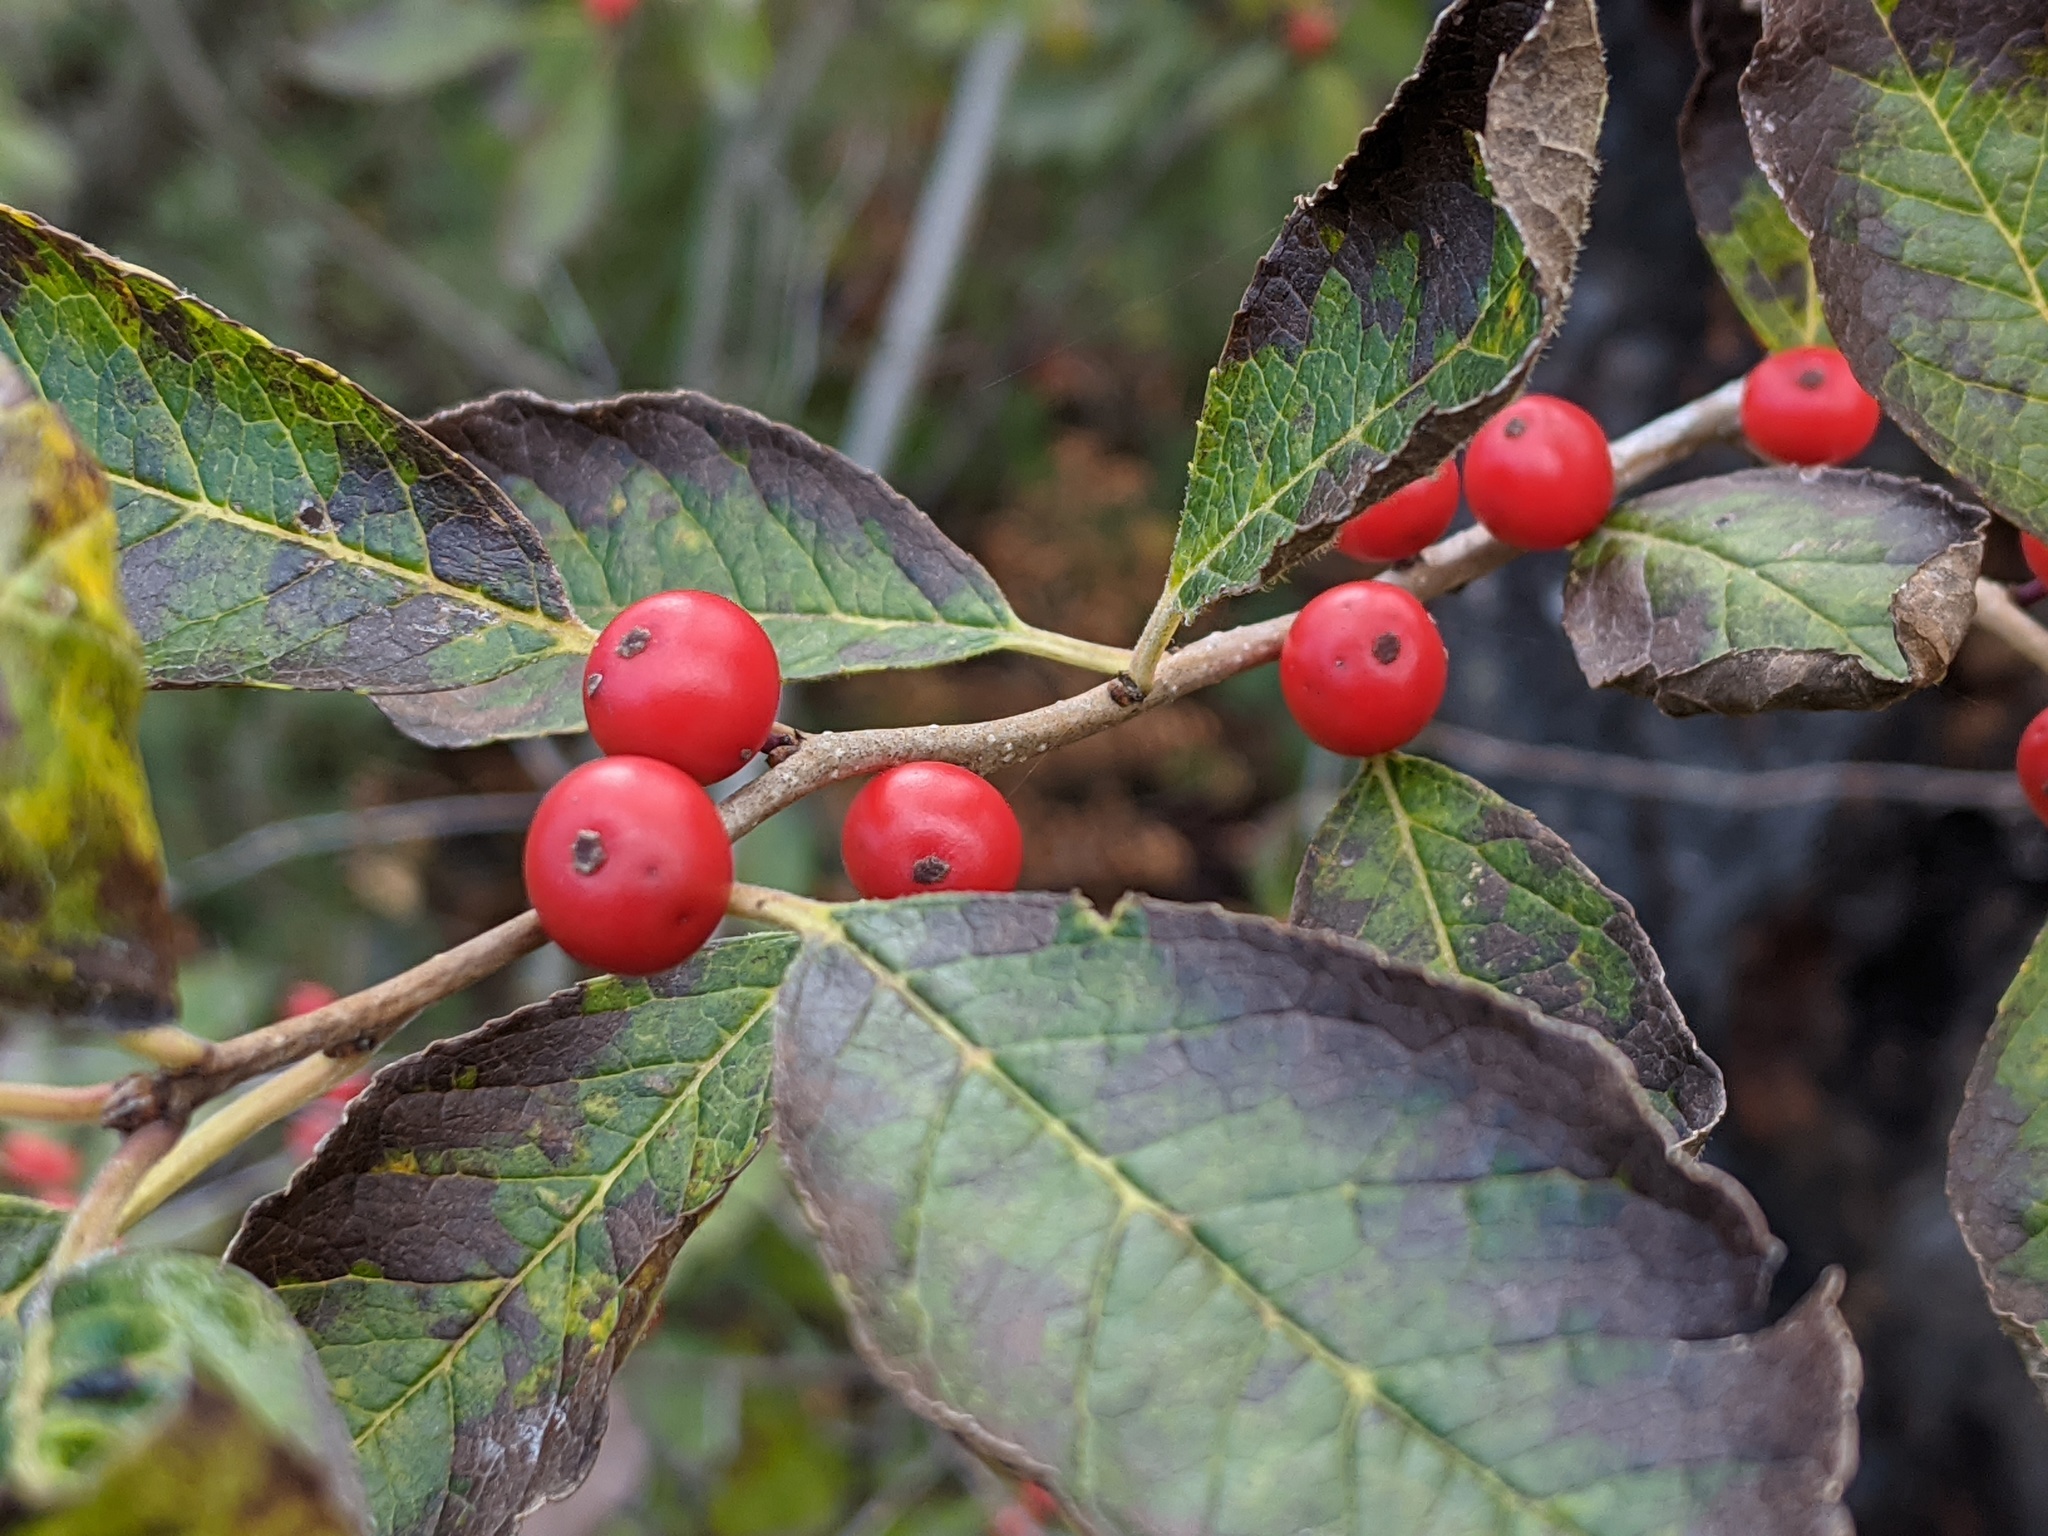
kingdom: Plantae
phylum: Tracheophyta
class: Magnoliopsida
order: Aquifoliales
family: Aquifoliaceae
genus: Ilex
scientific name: Ilex verticillata
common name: Virginia winterberry
